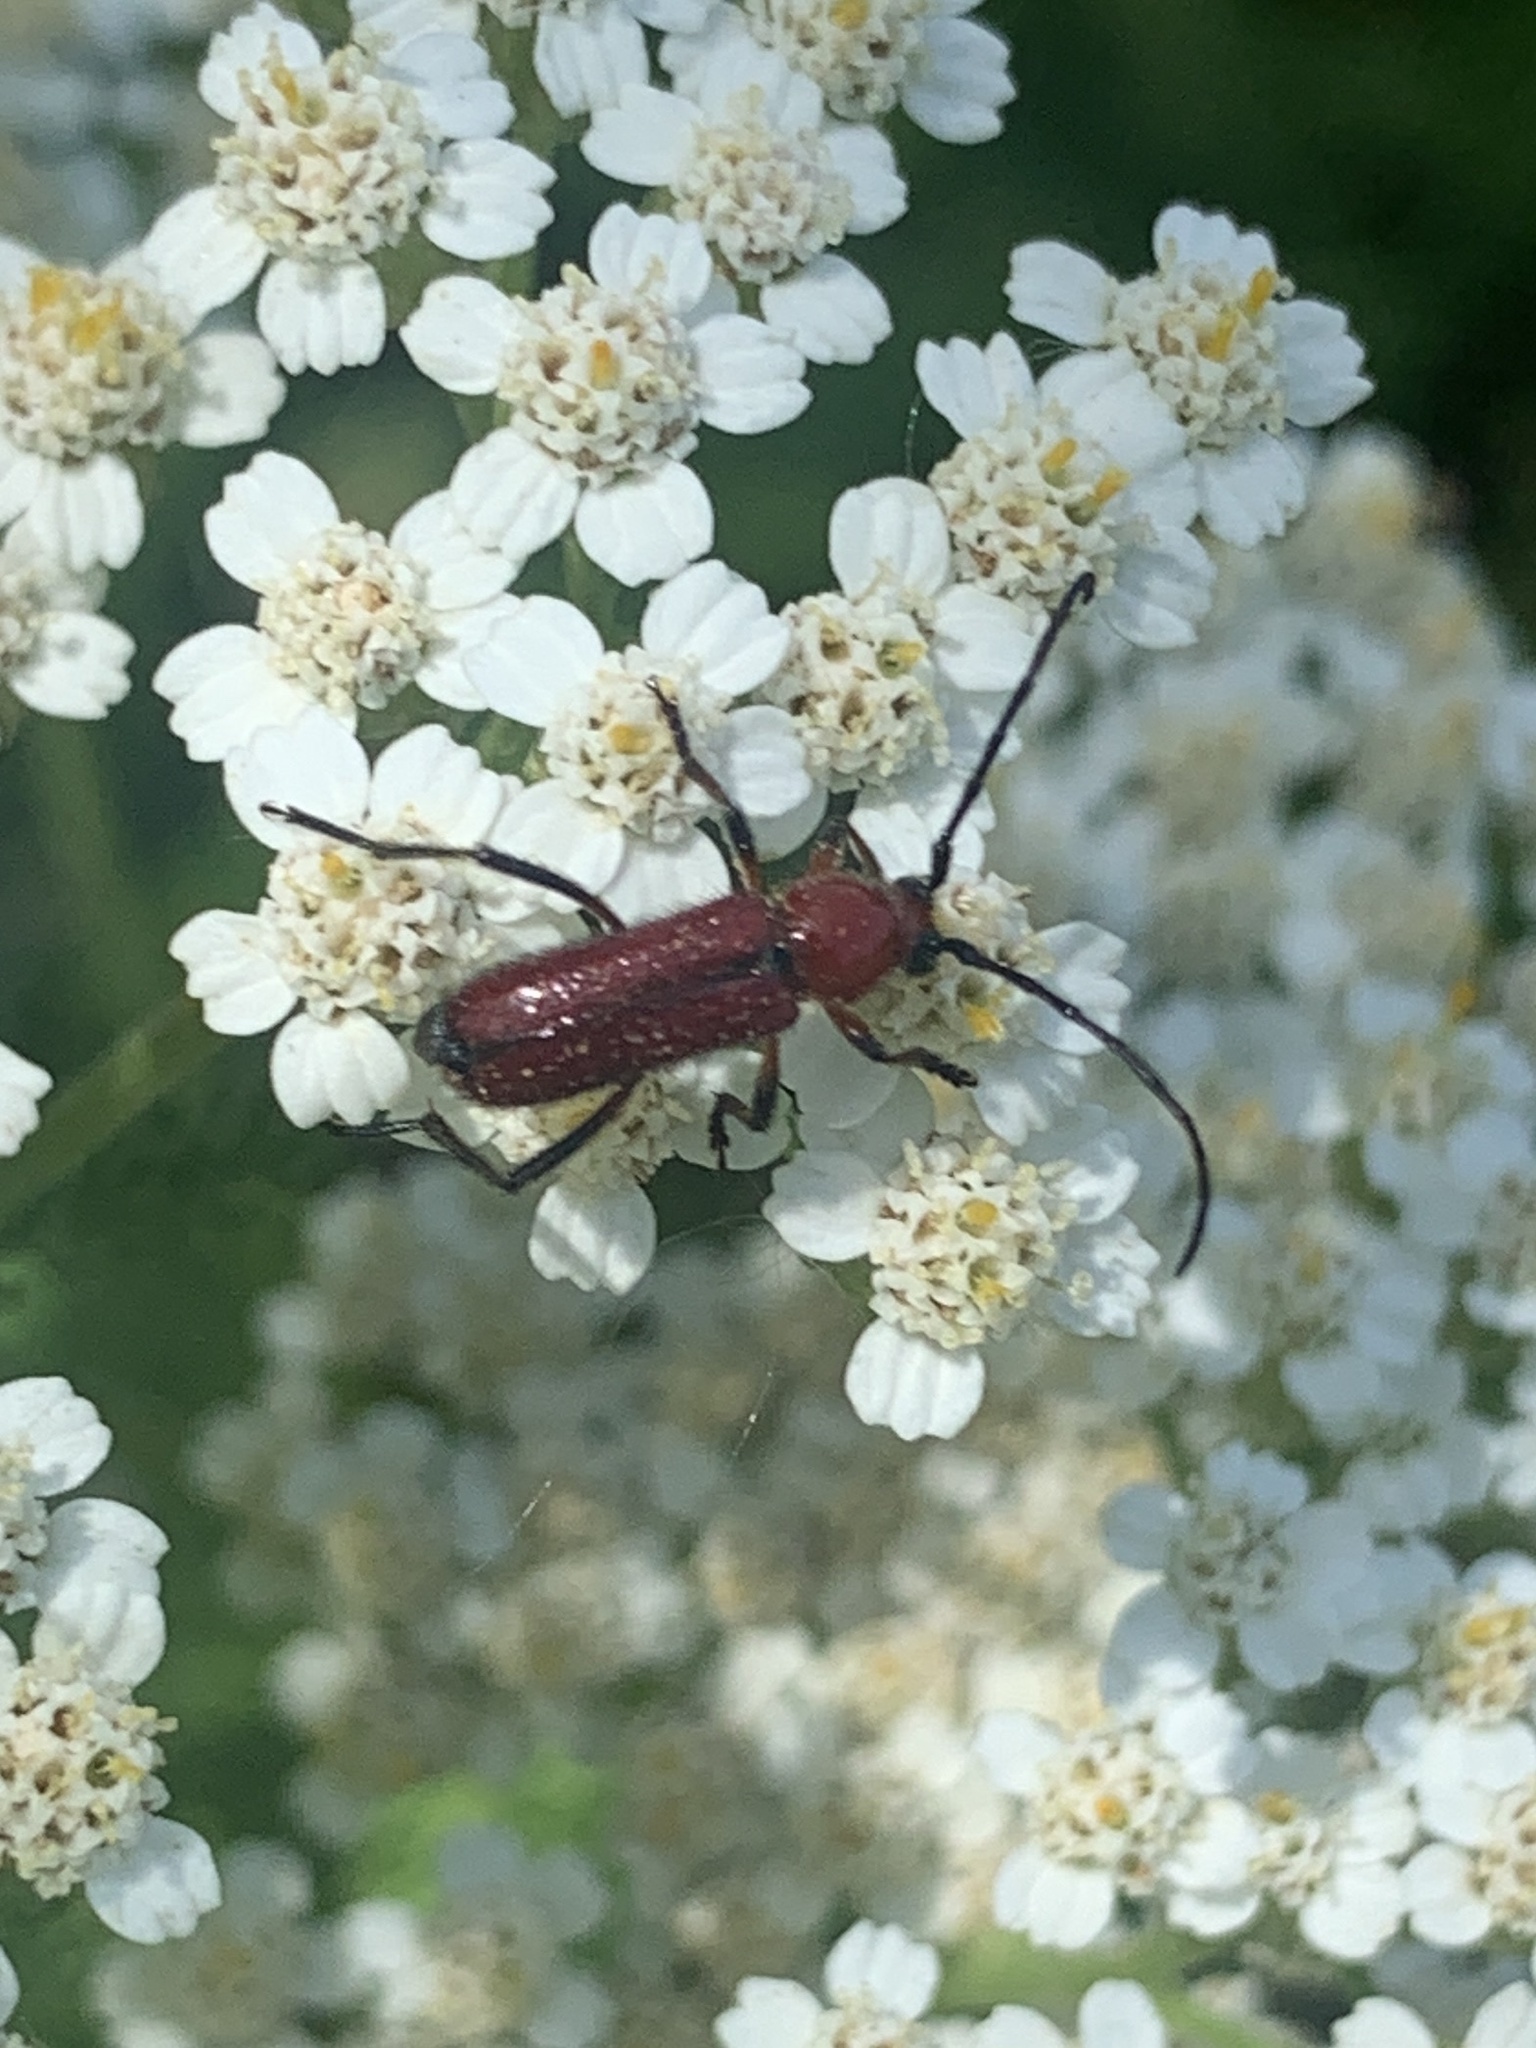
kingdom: Animalia
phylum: Arthropoda
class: Insecta
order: Coleoptera
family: Cerambycidae
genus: Batyle
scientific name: Batyle suturalis
